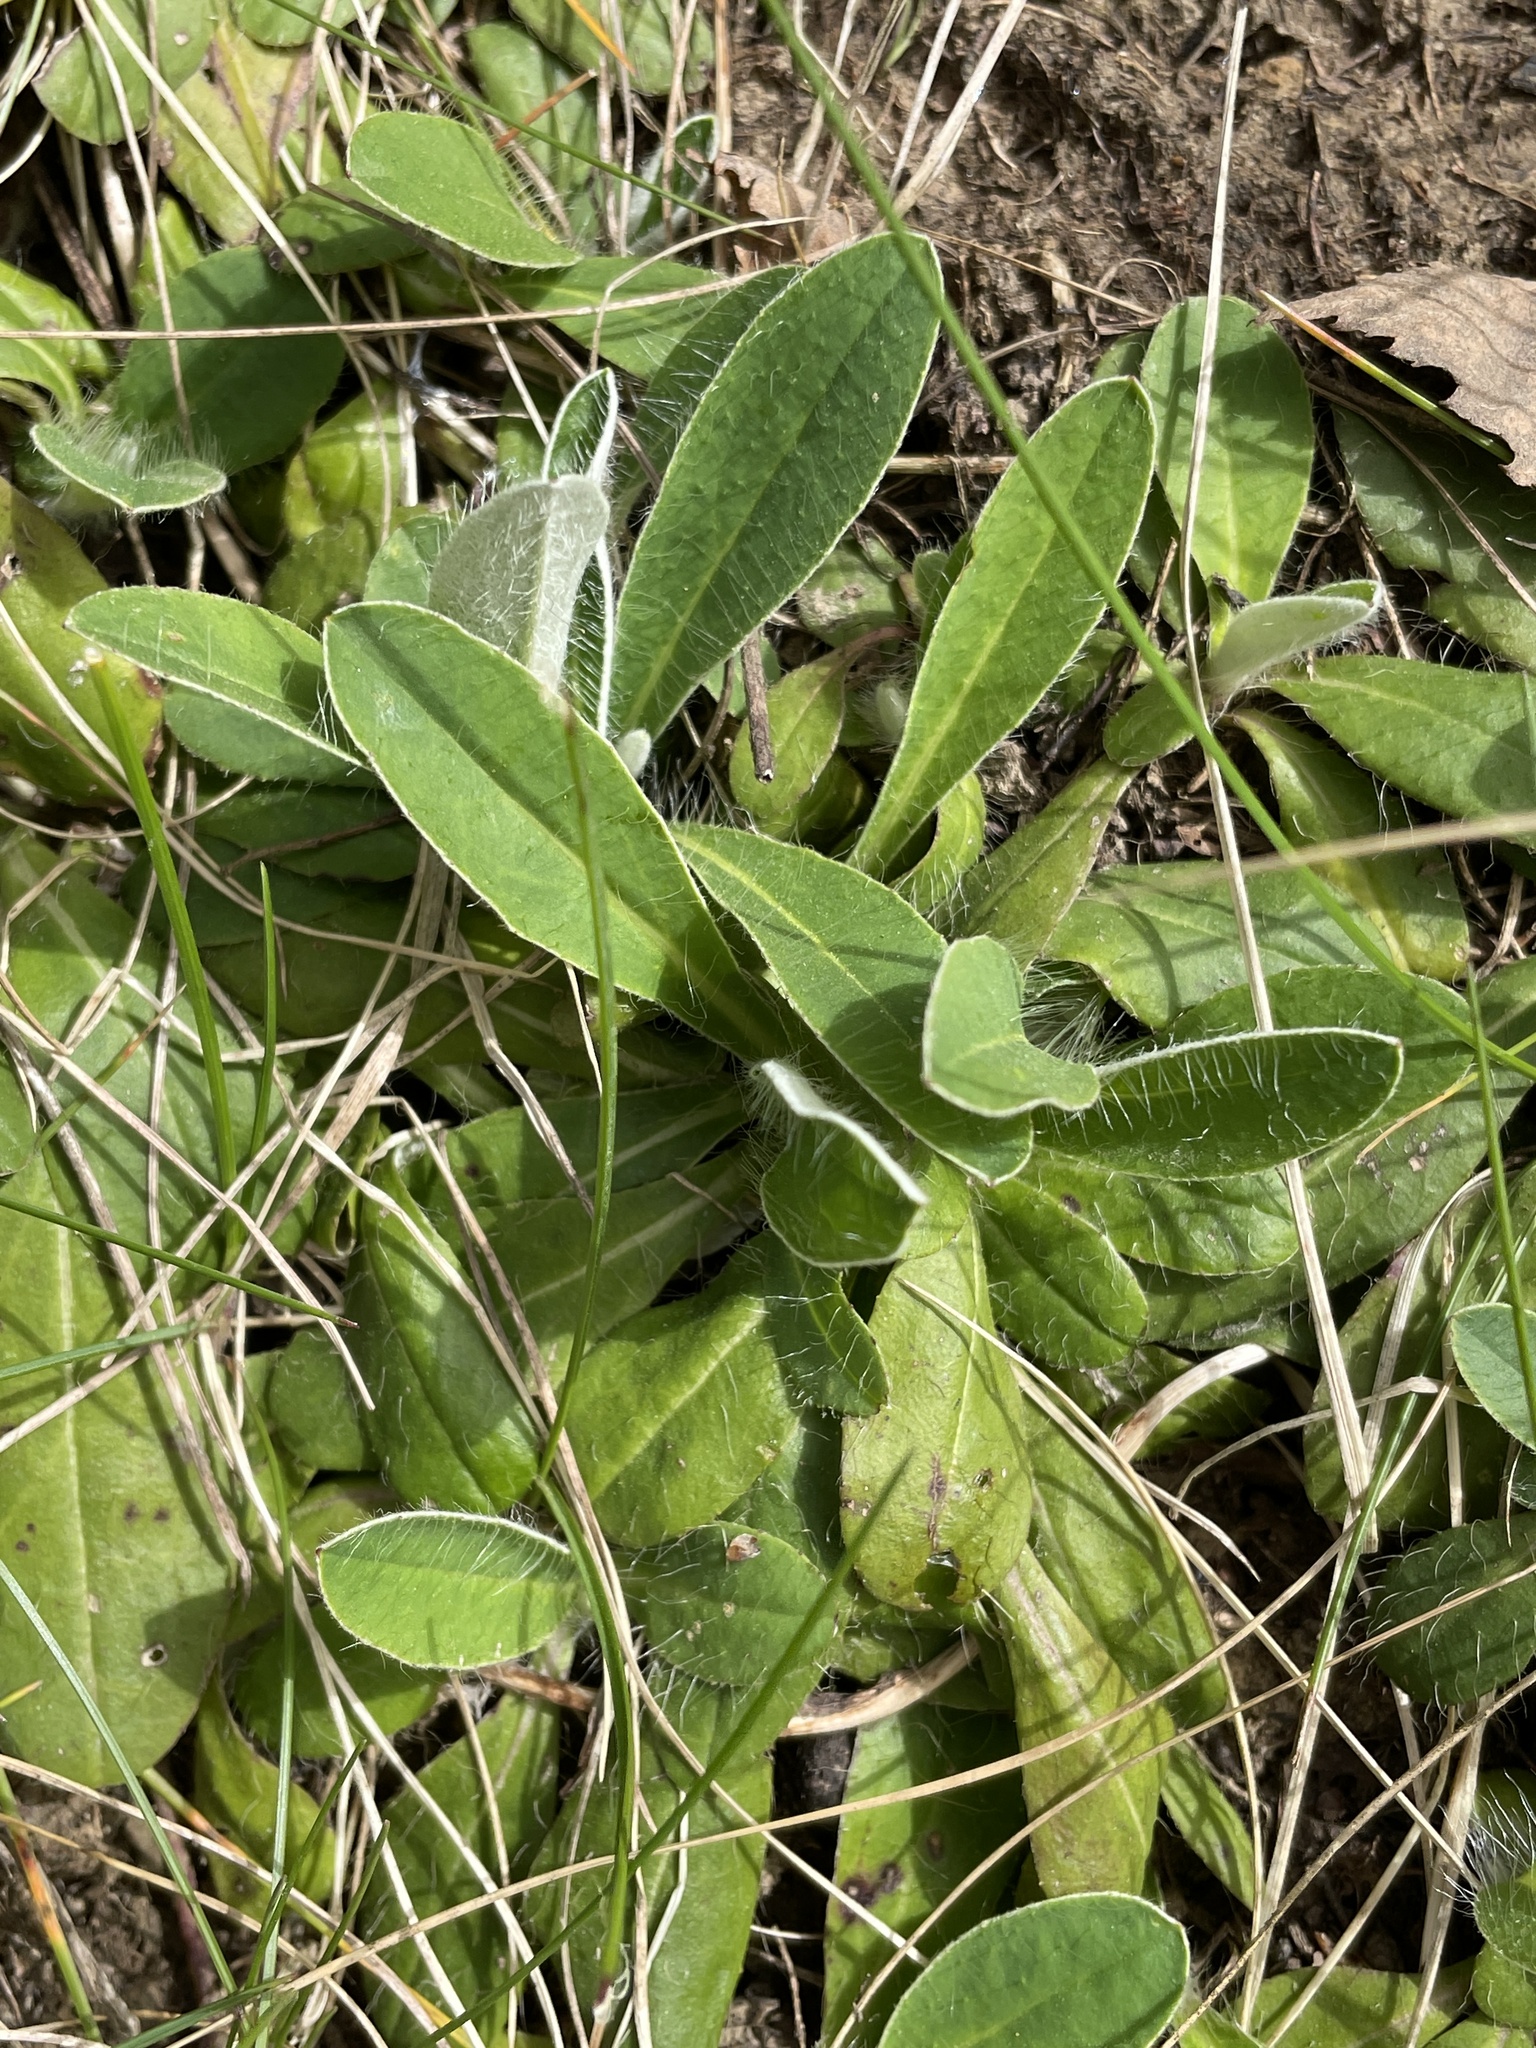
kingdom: Plantae
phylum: Tracheophyta
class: Magnoliopsida
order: Asterales
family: Asteraceae
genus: Pilosella
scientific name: Pilosella officinarum
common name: Mouse-ear hawkweed
